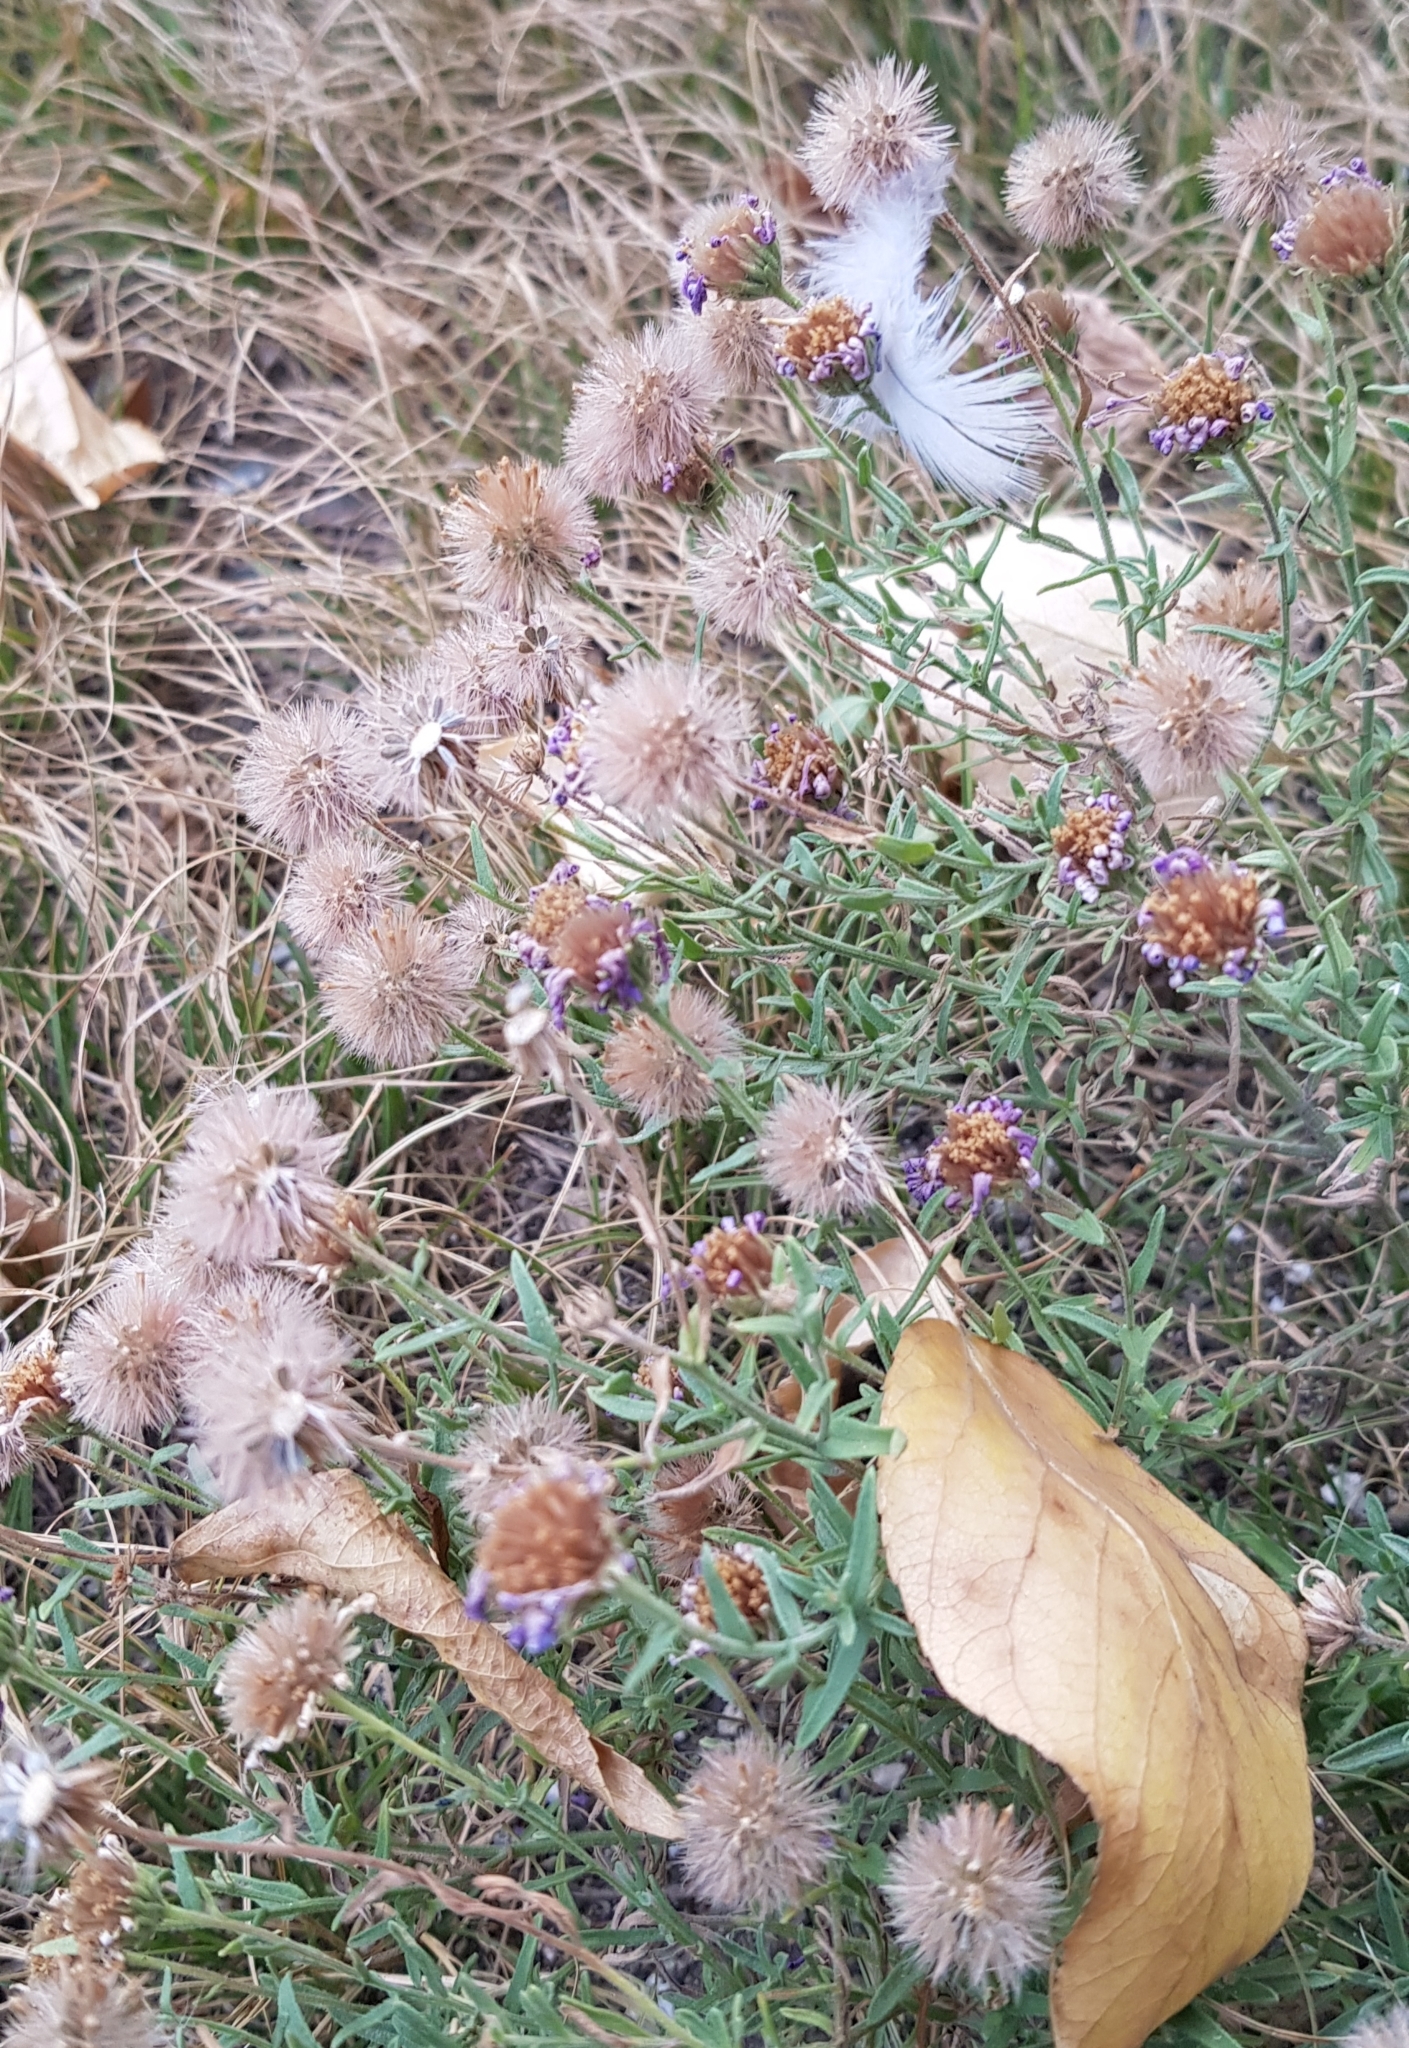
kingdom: Plantae
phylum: Tracheophyta
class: Magnoliopsida
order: Asterales
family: Asteraceae
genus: Heteropappus
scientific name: Heteropappus altaicus
